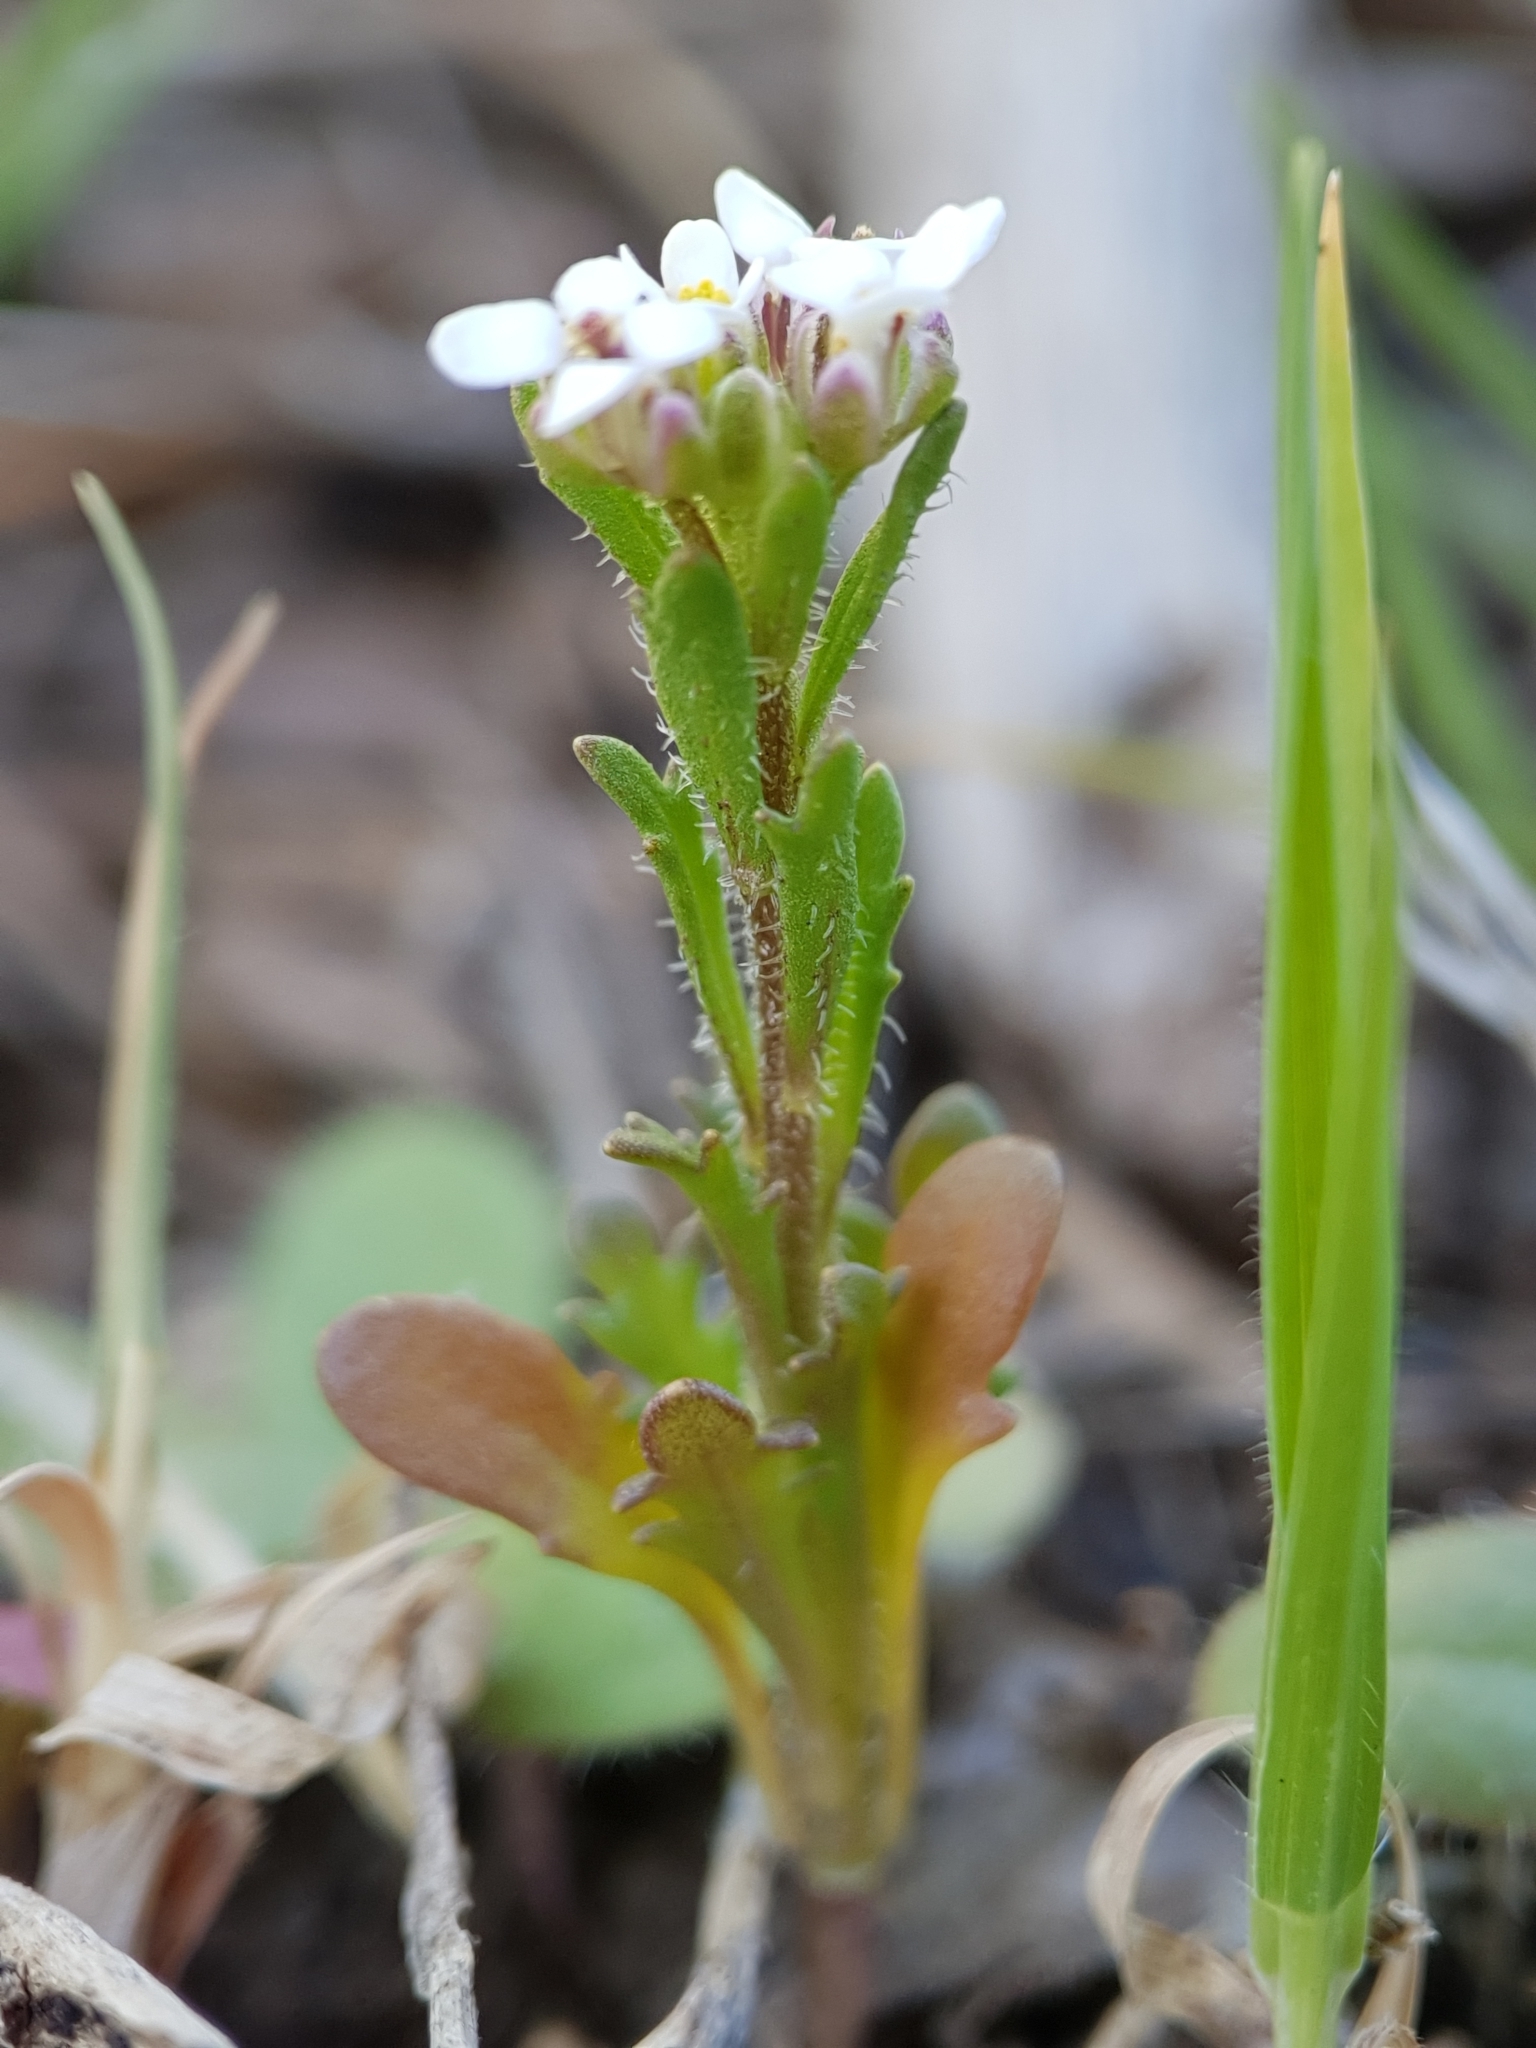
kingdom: Plantae
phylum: Tracheophyta
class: Magnoliopsida
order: Brassicales
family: Brassicaceae
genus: Iberis
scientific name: Iberis odorata
